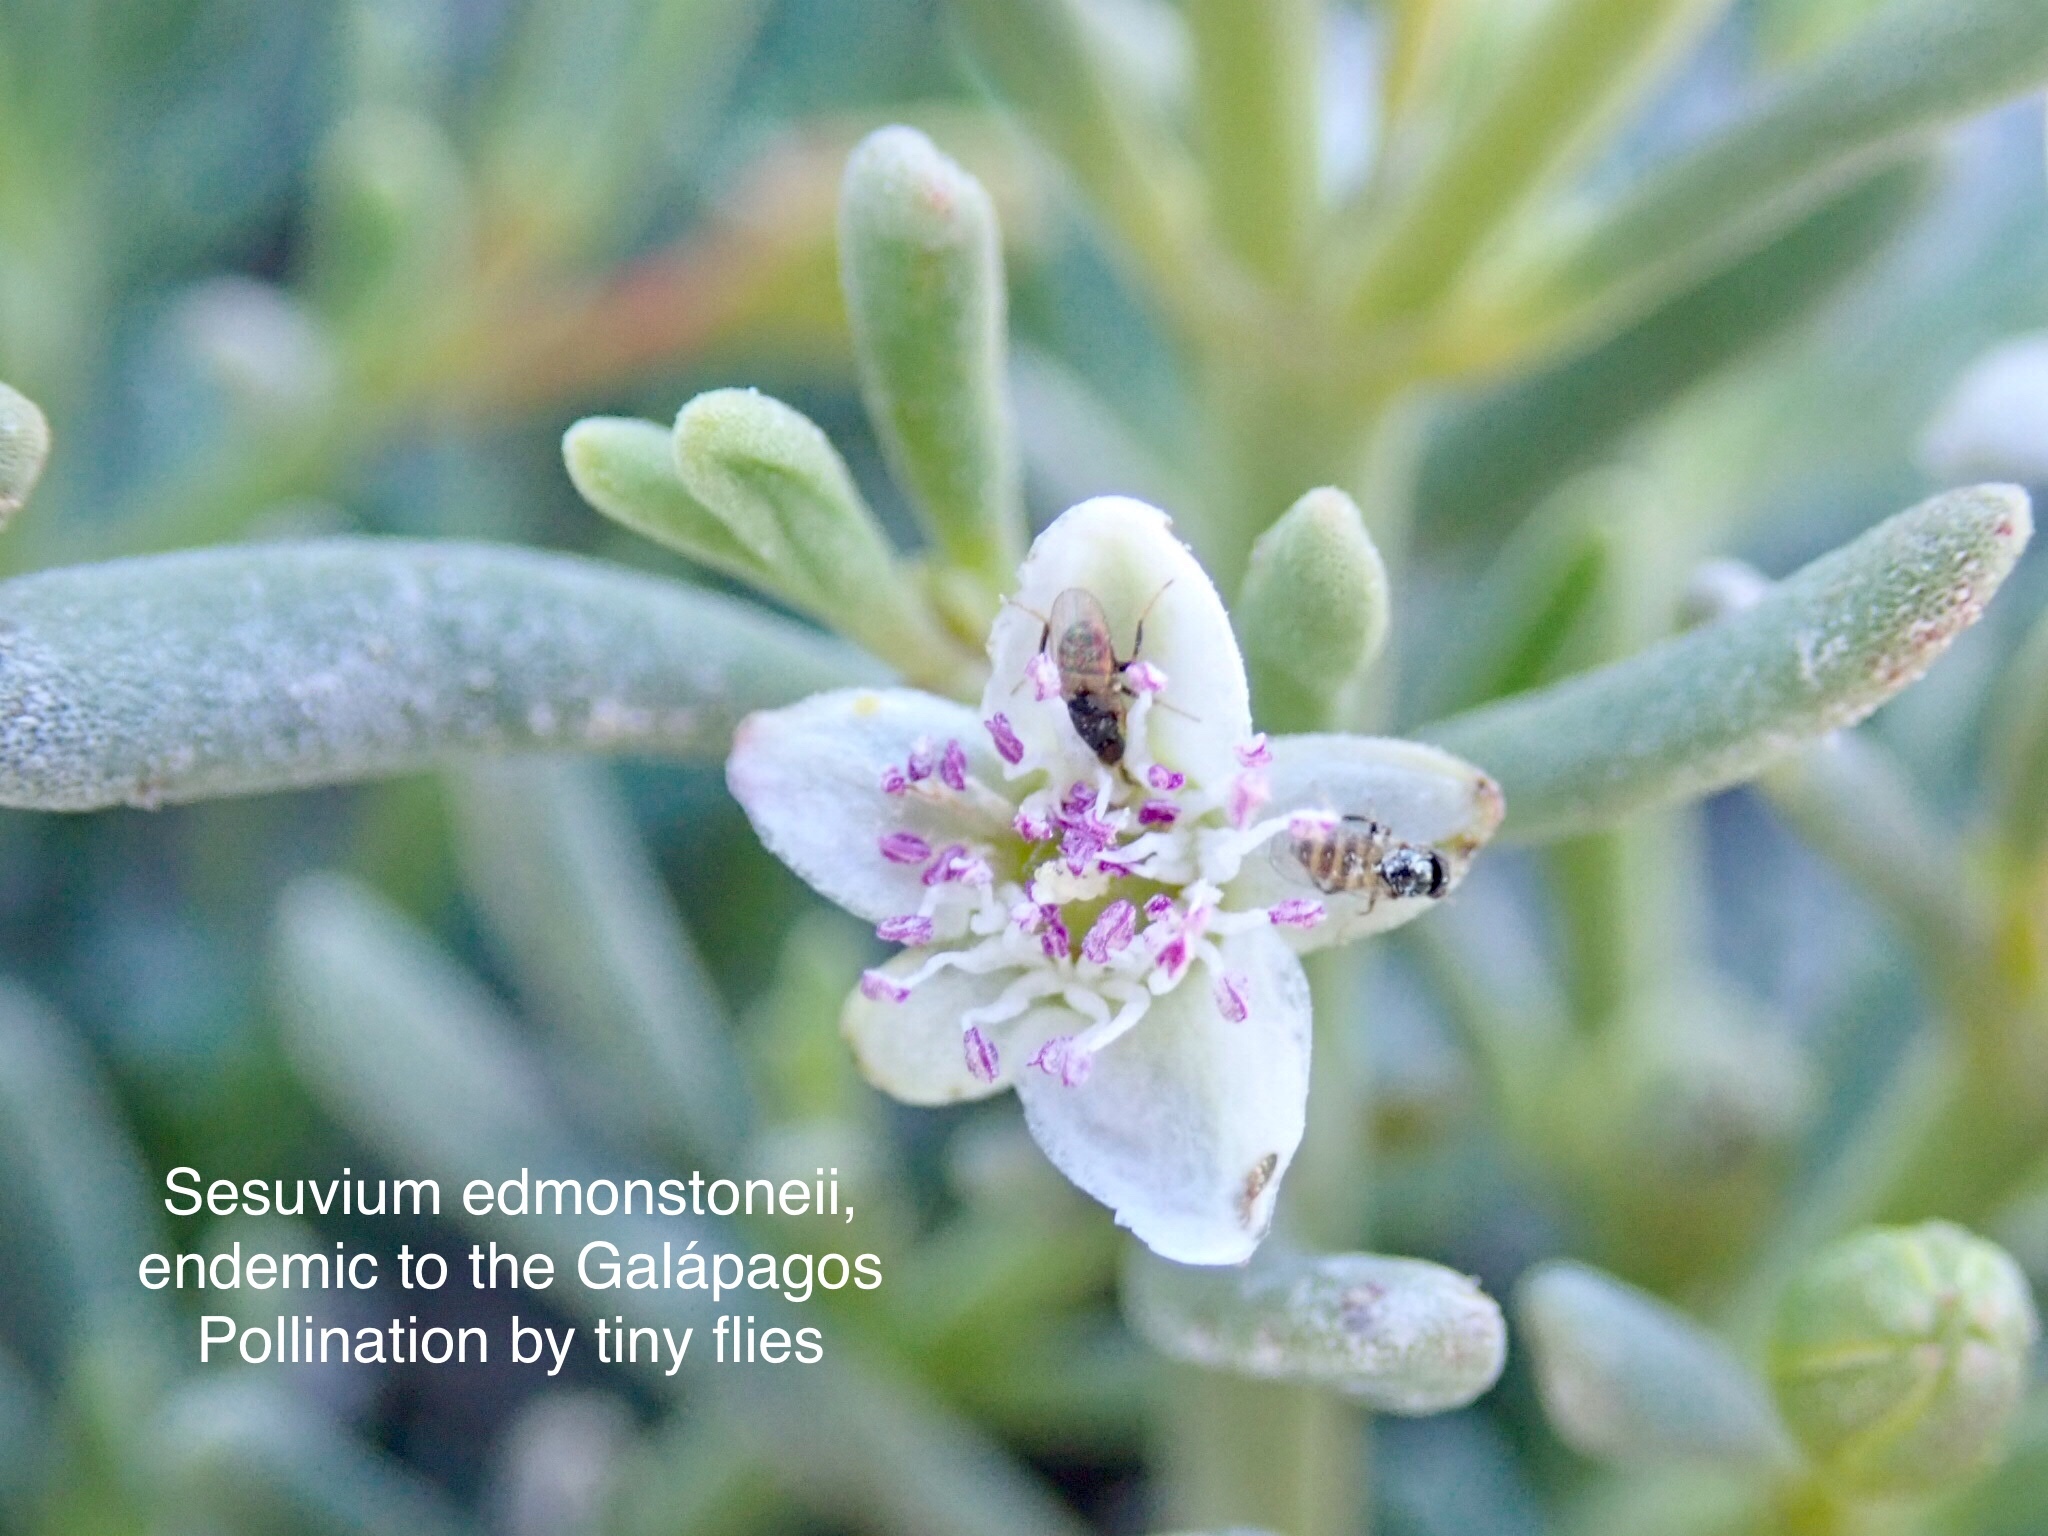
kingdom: Plantae
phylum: Tracheophyta
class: Magnoliopsida
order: Caryophyllales
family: Aizoaceae
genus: Sesuvium
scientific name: Sesuvium edmonstonei
